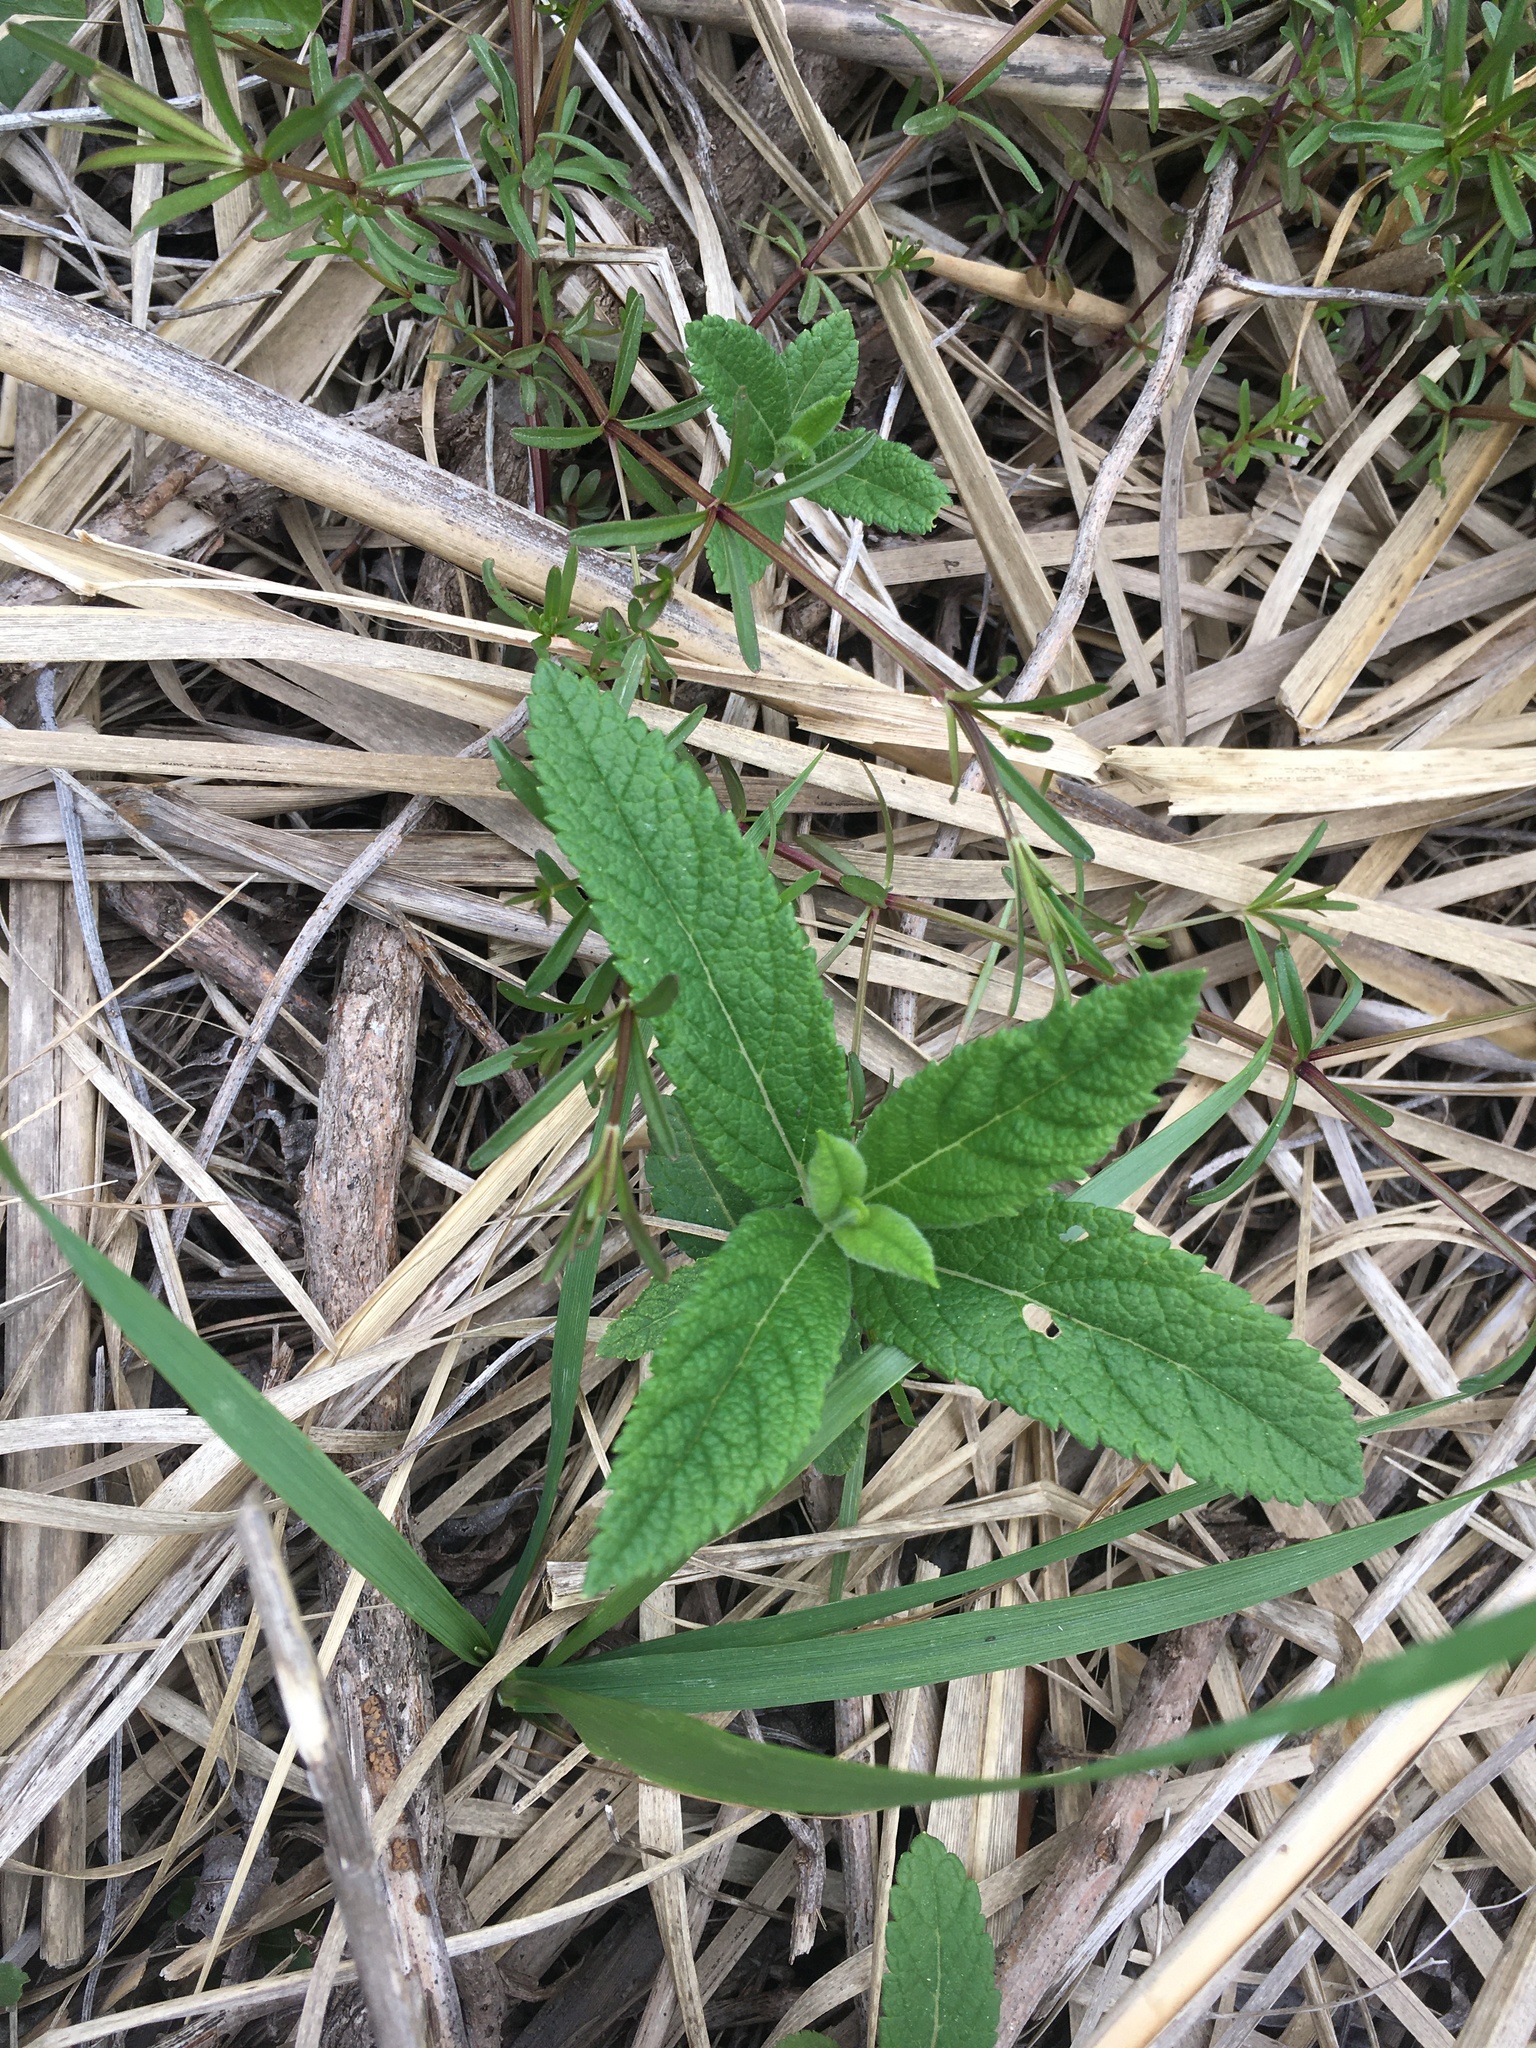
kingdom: Plantae
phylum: Tracheophyta
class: Magnoliopsida
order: Lamiales
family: Lamiaceae
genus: Teucrium
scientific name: Teucrium canadense
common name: American germander
